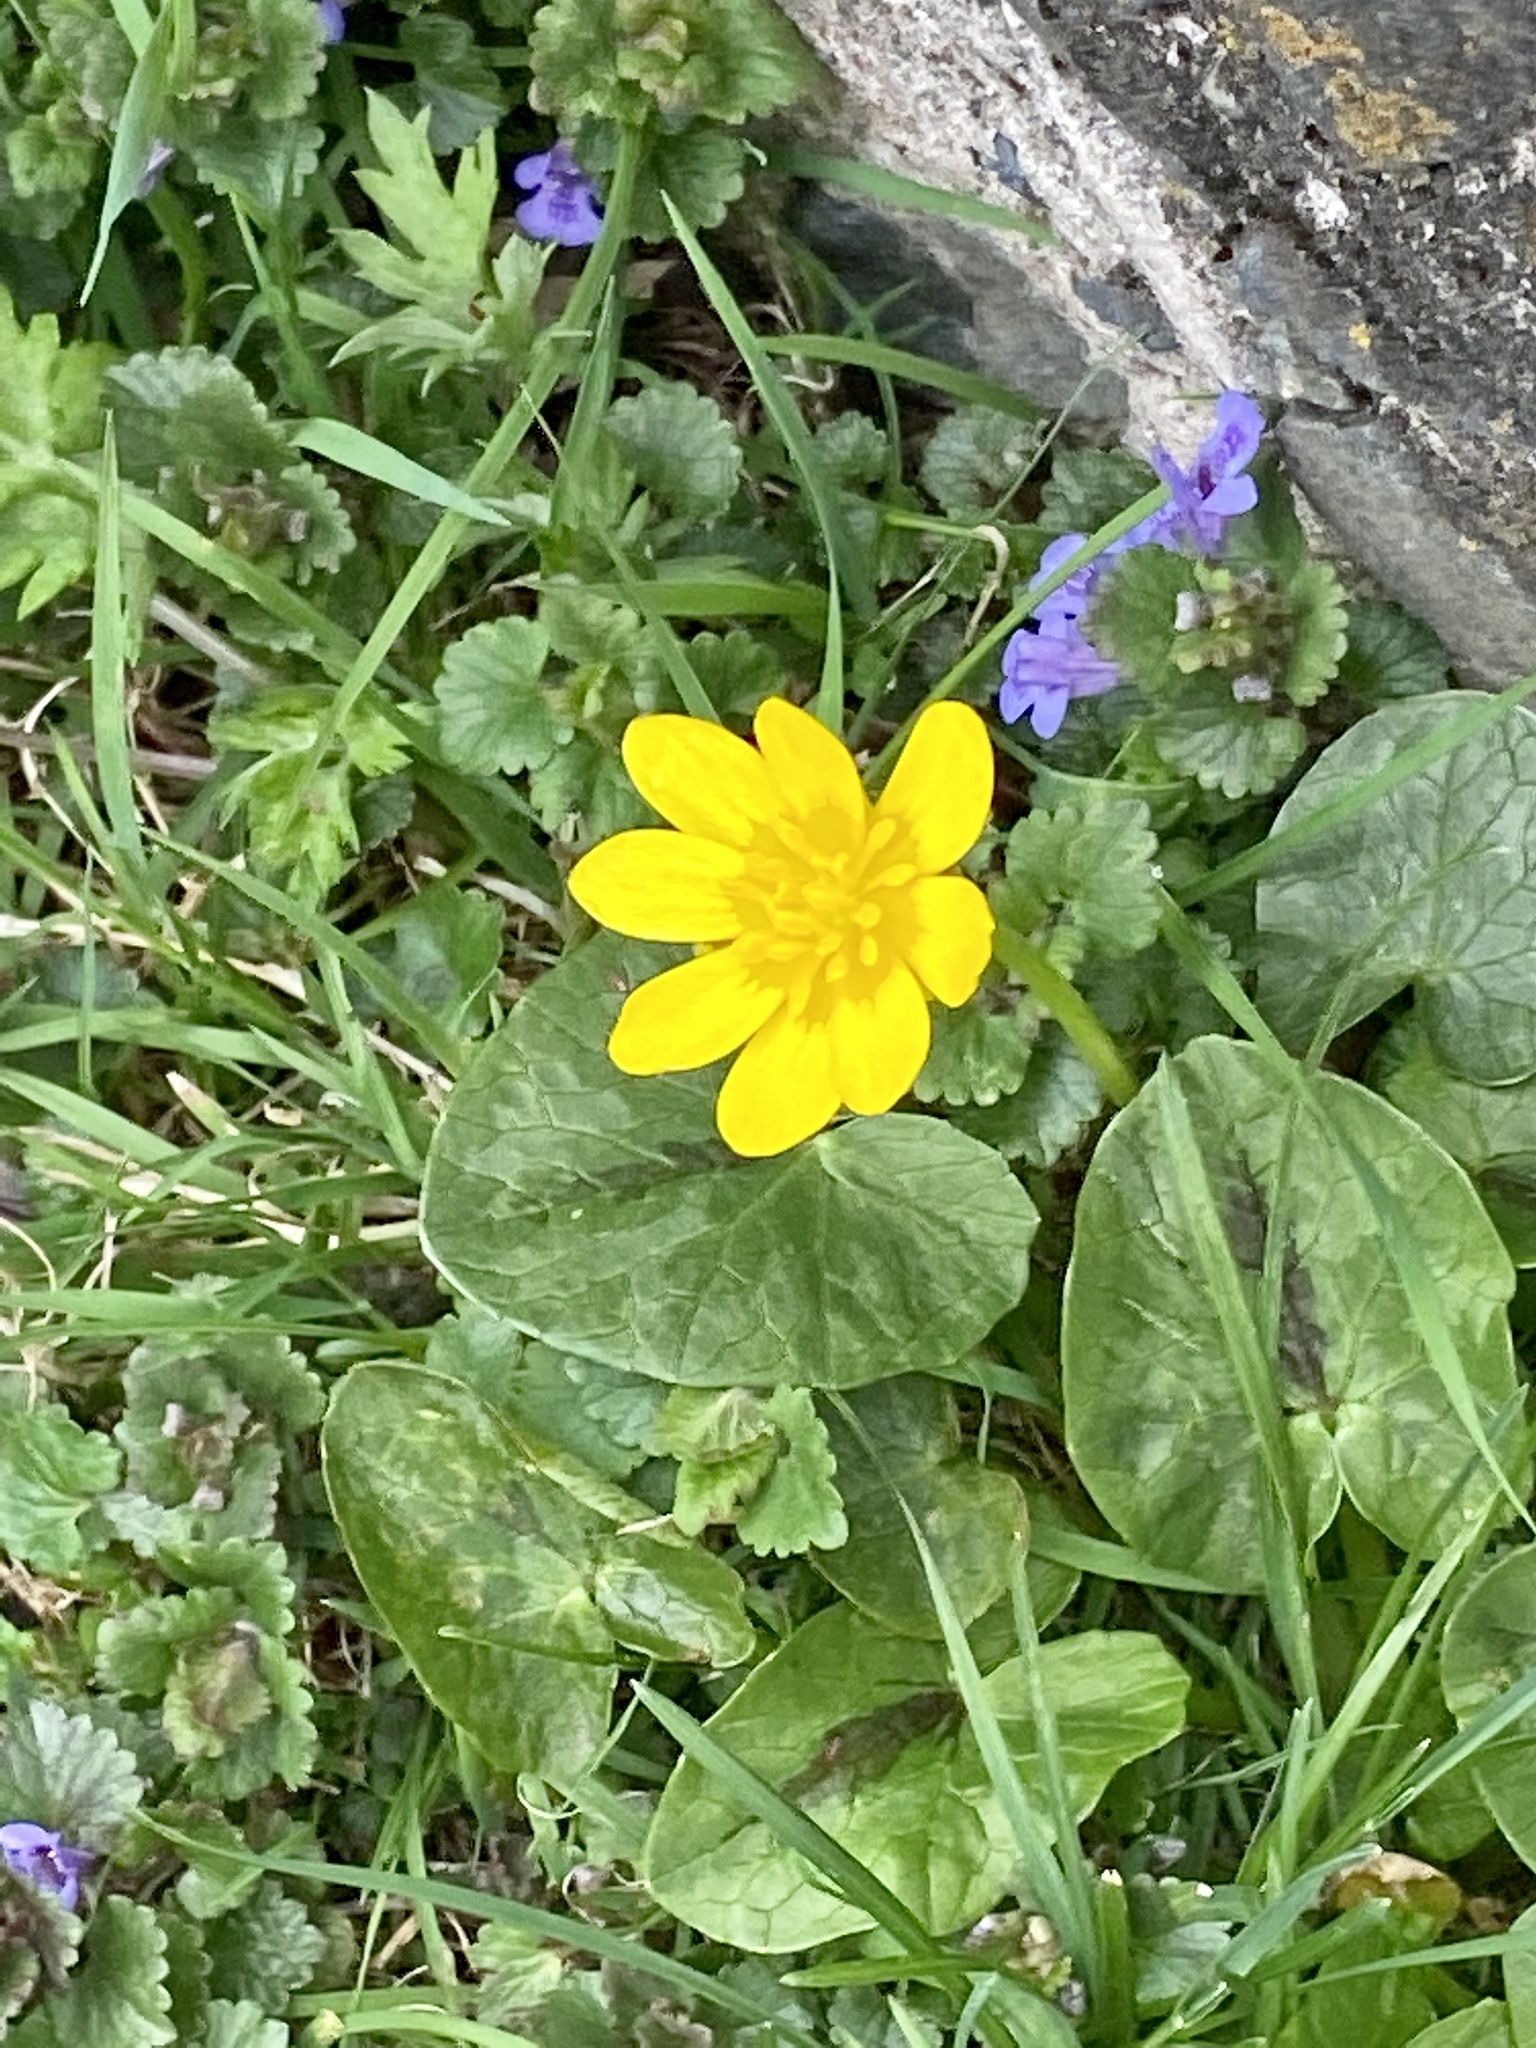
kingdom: Plantae
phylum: Tracheophyta
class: Magnoliopsida
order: Ranunculales
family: Ranunculaceae
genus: Ficaria
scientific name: Ficaria verna
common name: Lesser celandine
